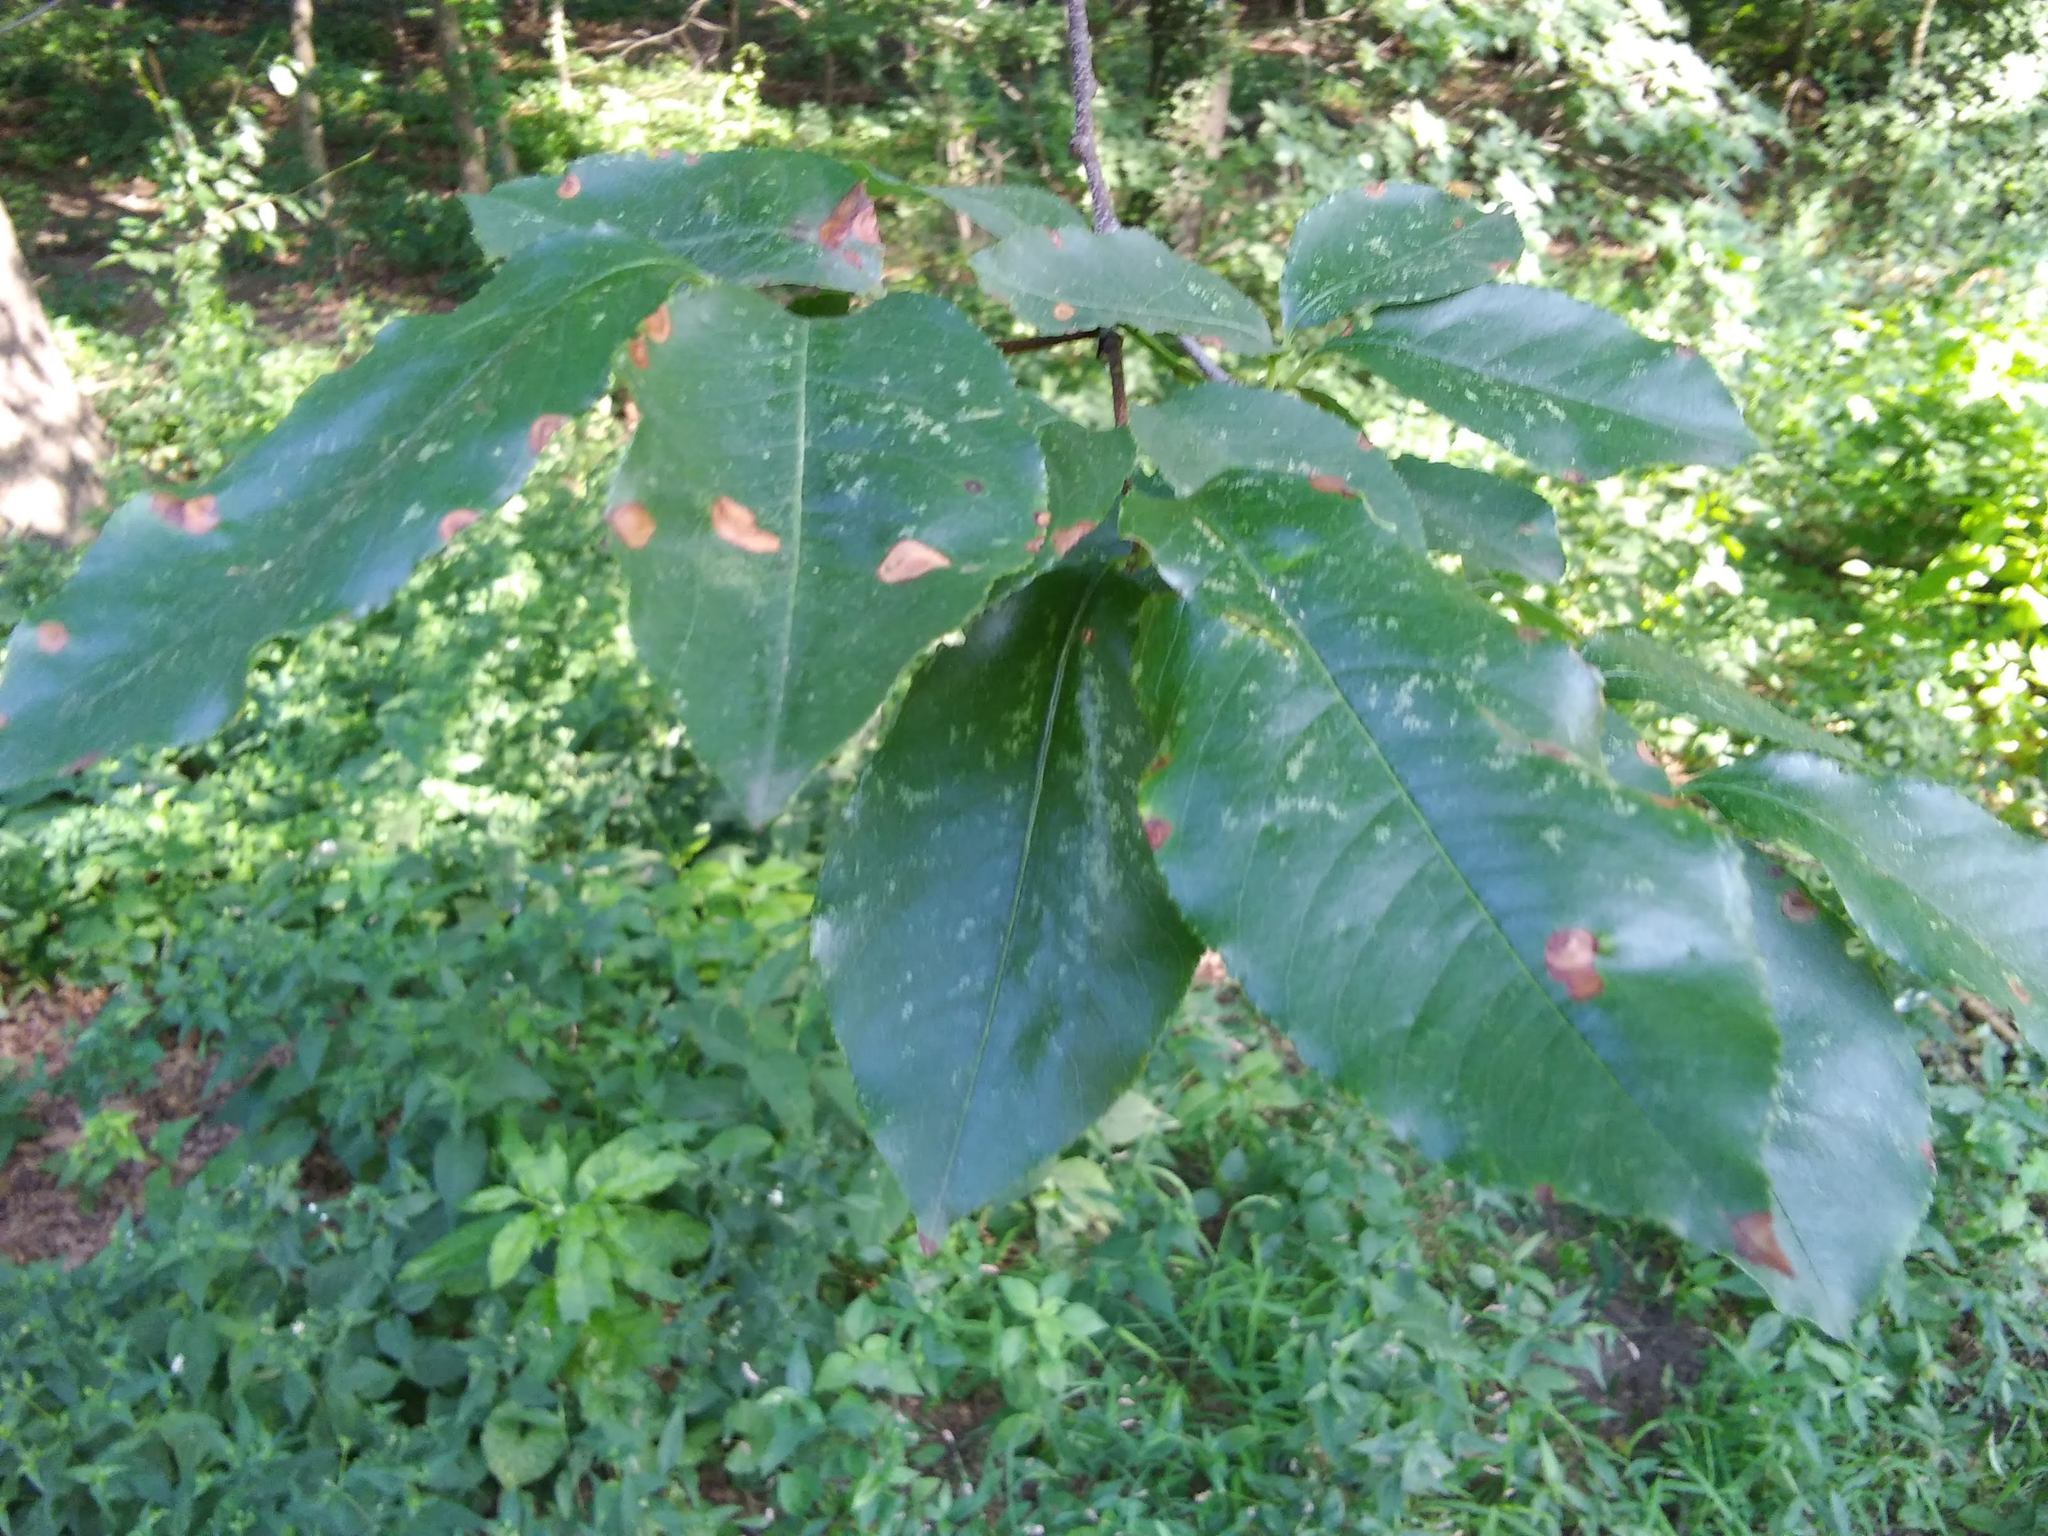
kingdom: Plantae
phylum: Tracheophyta
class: Magnoliopsida
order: Rosales
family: Rosaceae
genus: Prunus
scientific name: Prunus serotina
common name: Black cherry
